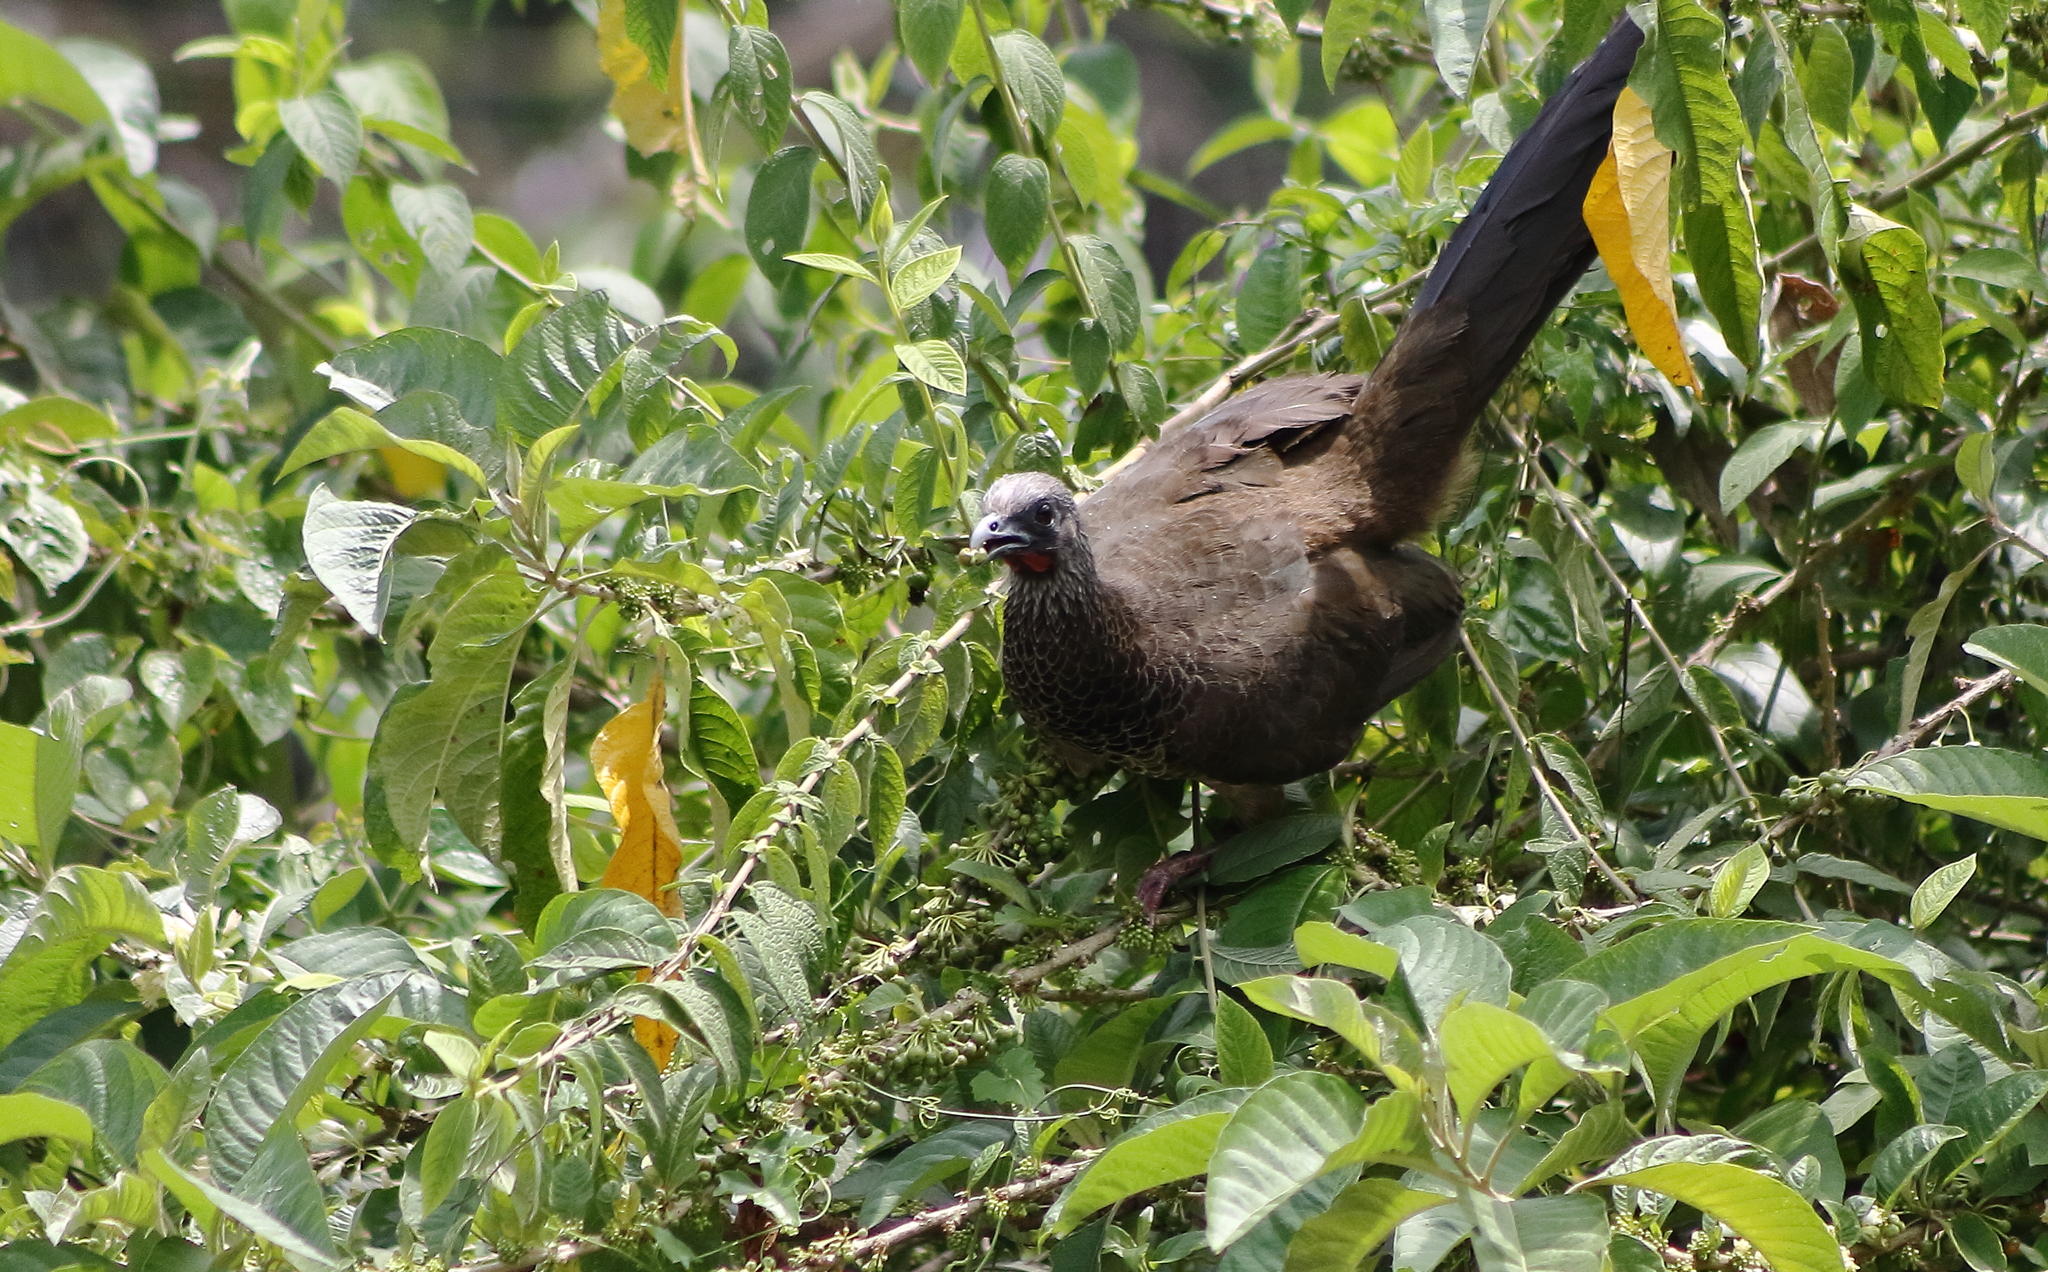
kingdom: Animalia
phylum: Chordata
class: Aves
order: Galliformes
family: Cracidae
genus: Ortalis
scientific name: Ortalis columbiana
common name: Colombian chachalaca
